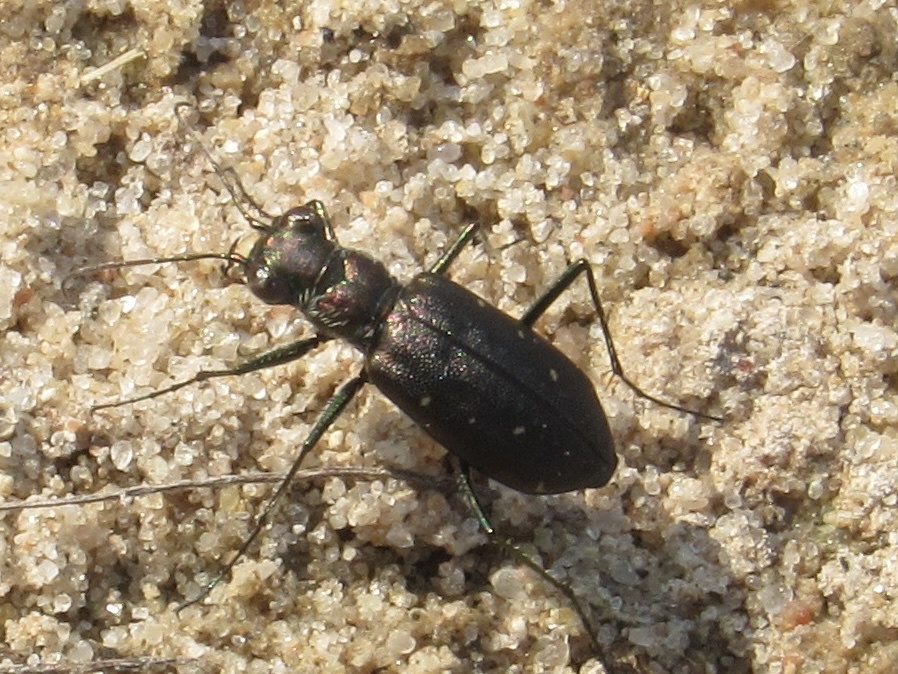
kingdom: Animalia
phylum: Arthropoda
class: Insecta
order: Coleoptera
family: Carabidae
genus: Cicindela
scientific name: Cicindela punctulata
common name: Punctured tiger beetle
